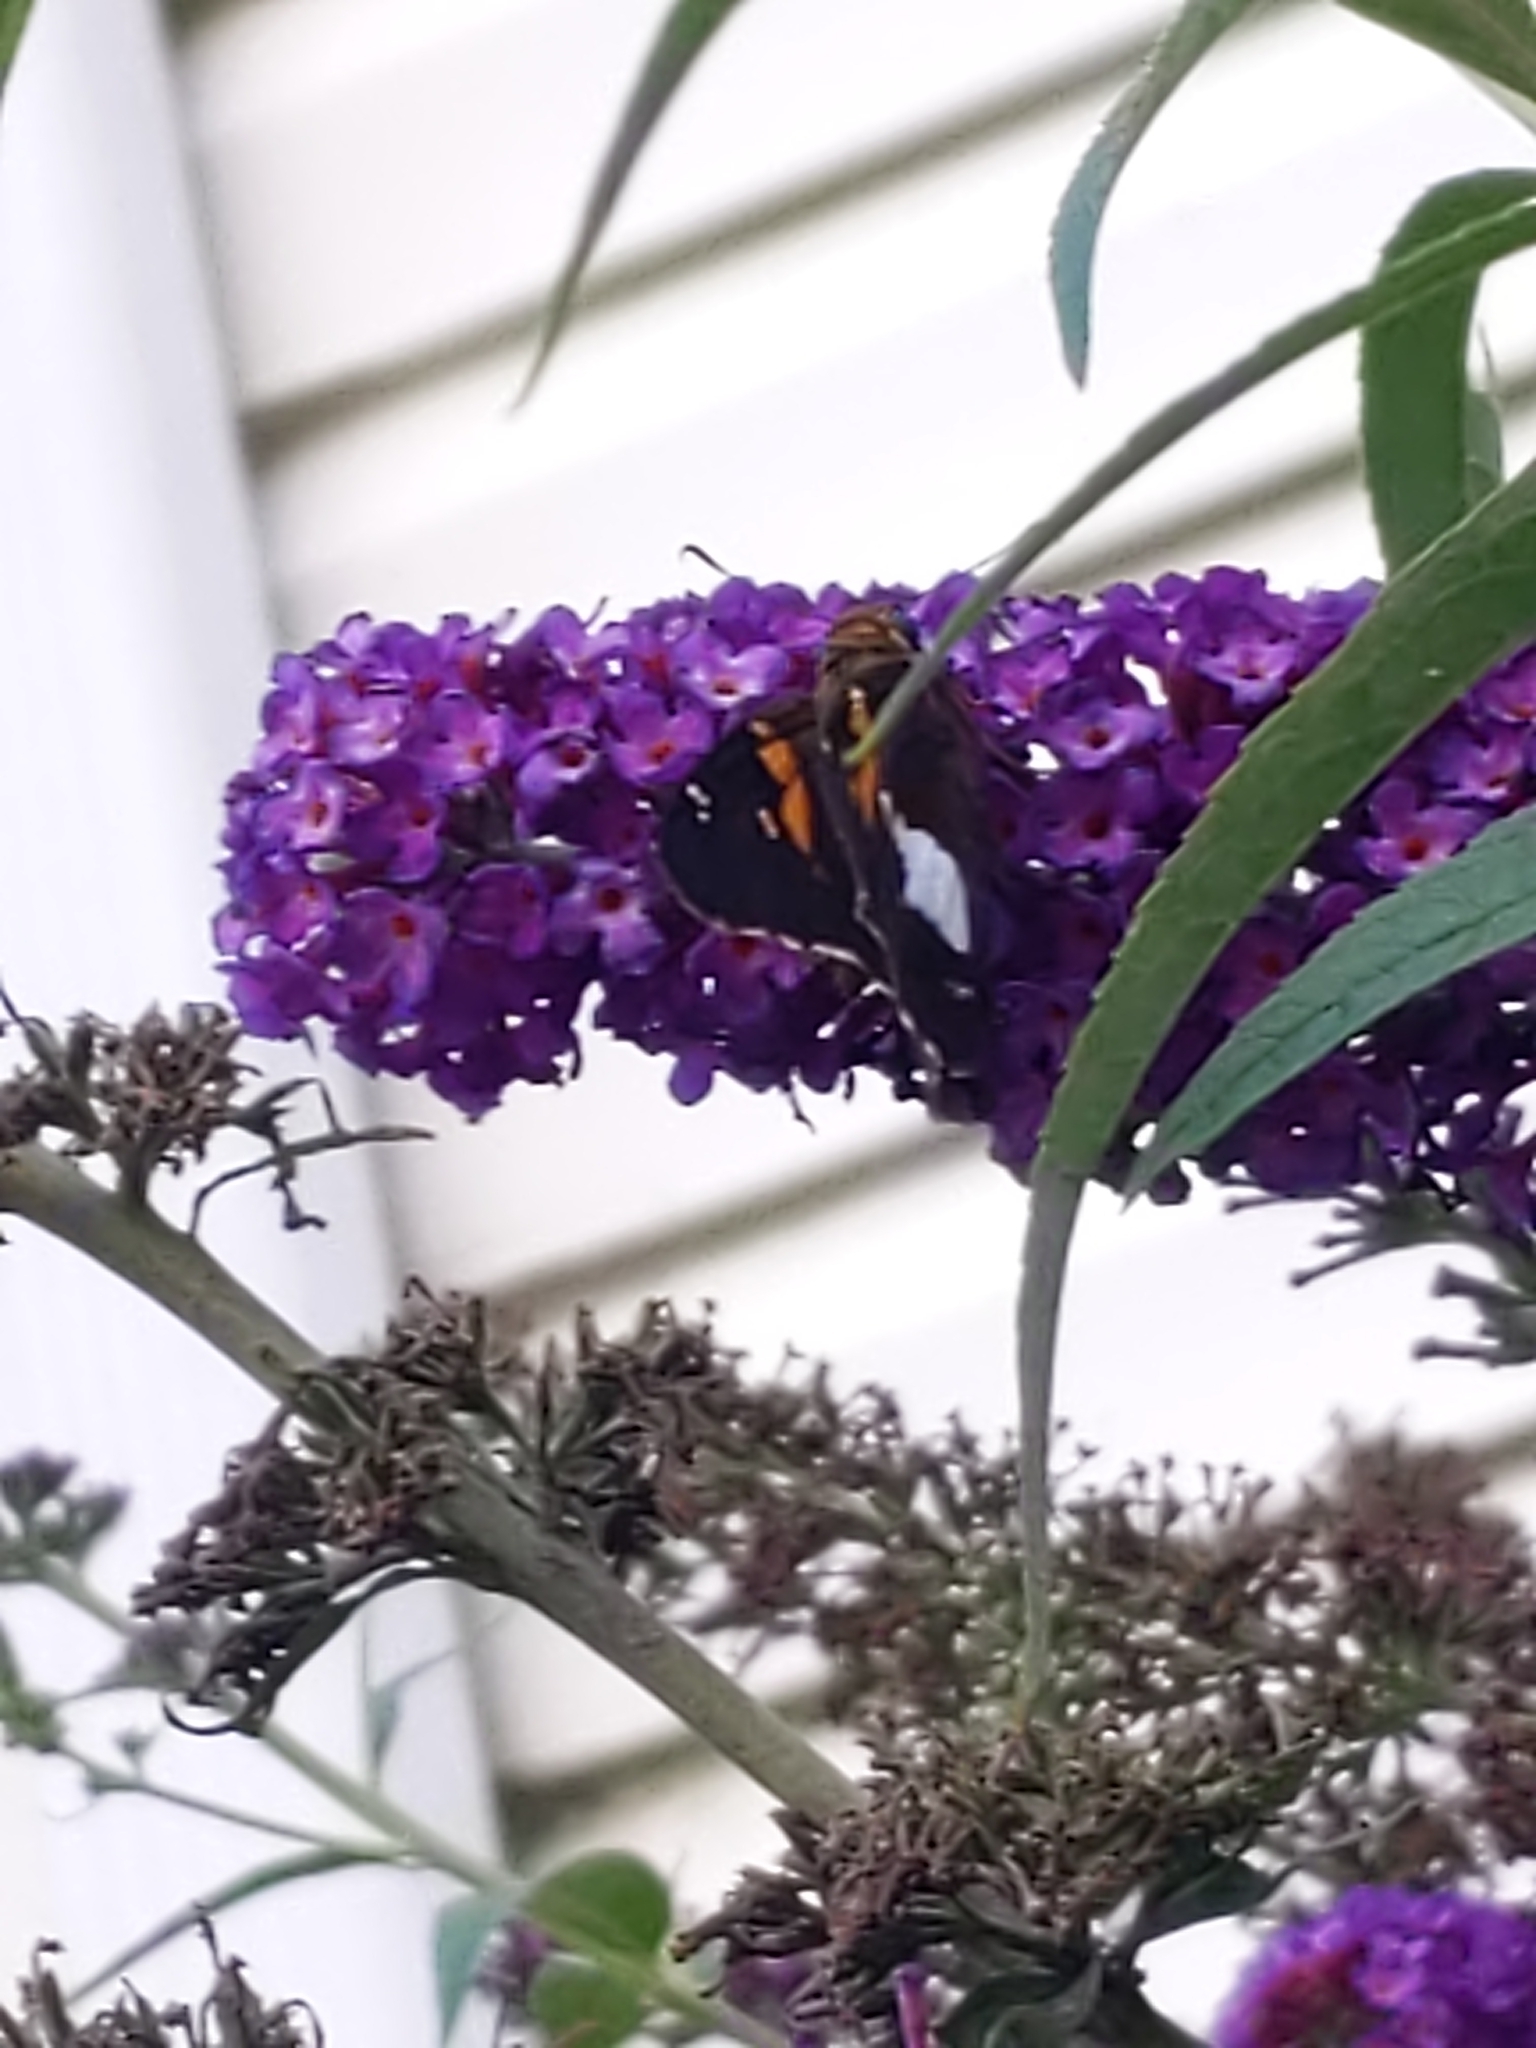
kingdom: Animalia
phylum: Arthropoda
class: Insecta
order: Lepidoptera
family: Hesperiidae
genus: Epargyreus
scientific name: Epargyreus clarus
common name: Silver-spotted skipper
